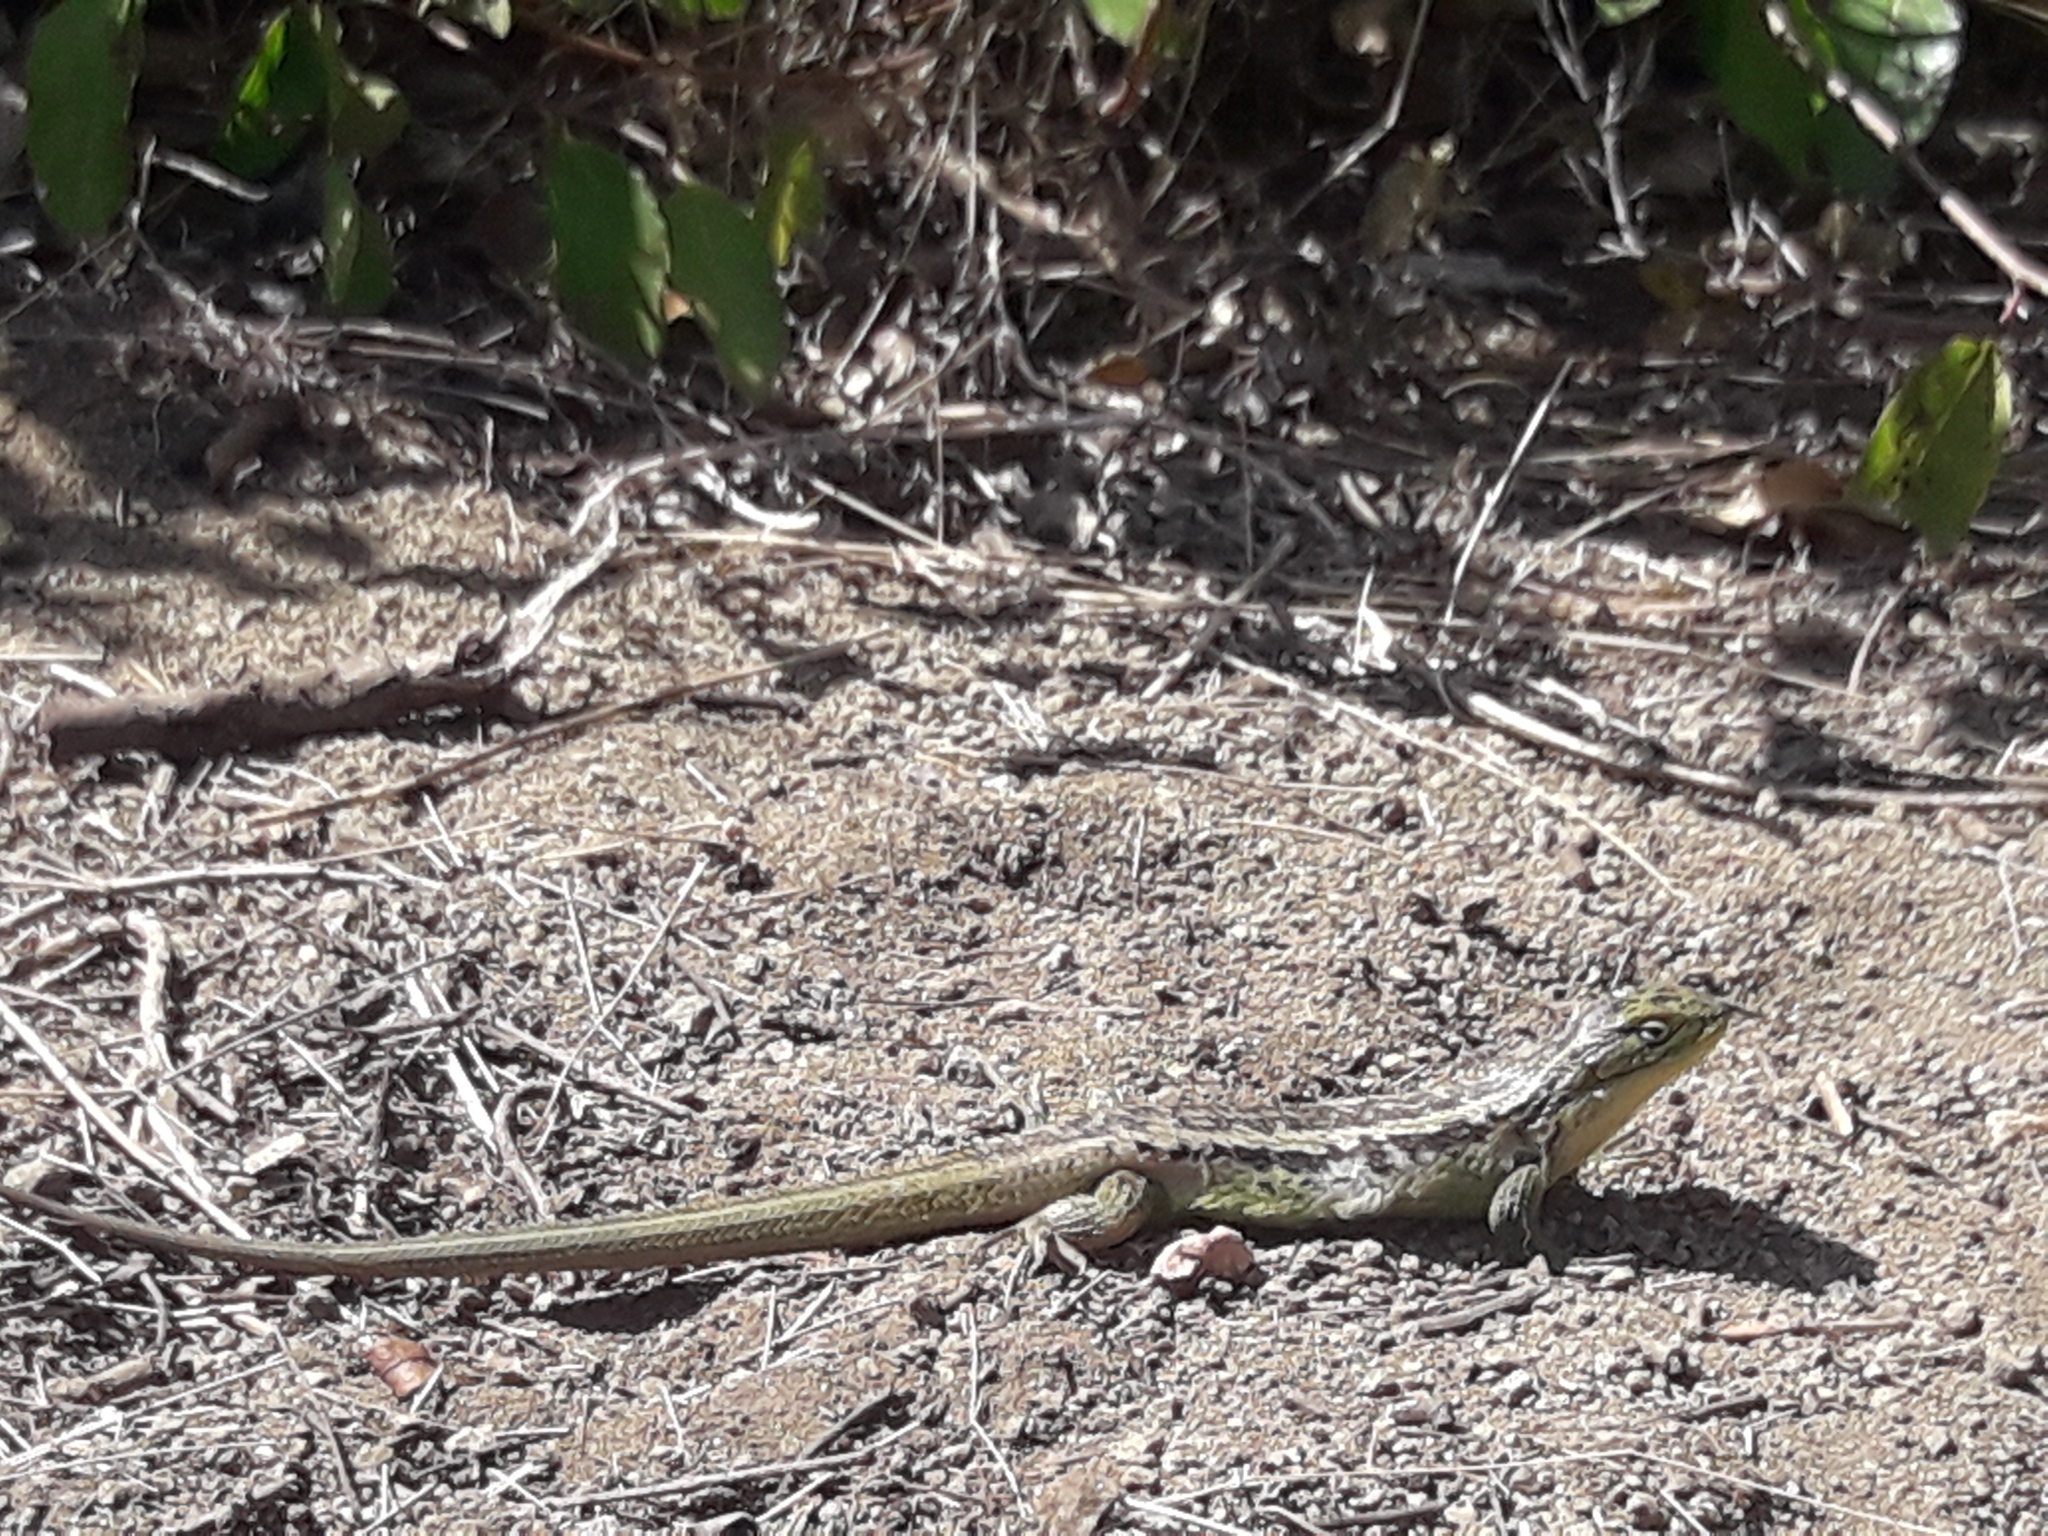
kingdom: Animalia
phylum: Chordata
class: Squamata
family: Liolaemidae
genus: Liolaemus
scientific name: Liolaemus chiliensis
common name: Chilean tree iguana
